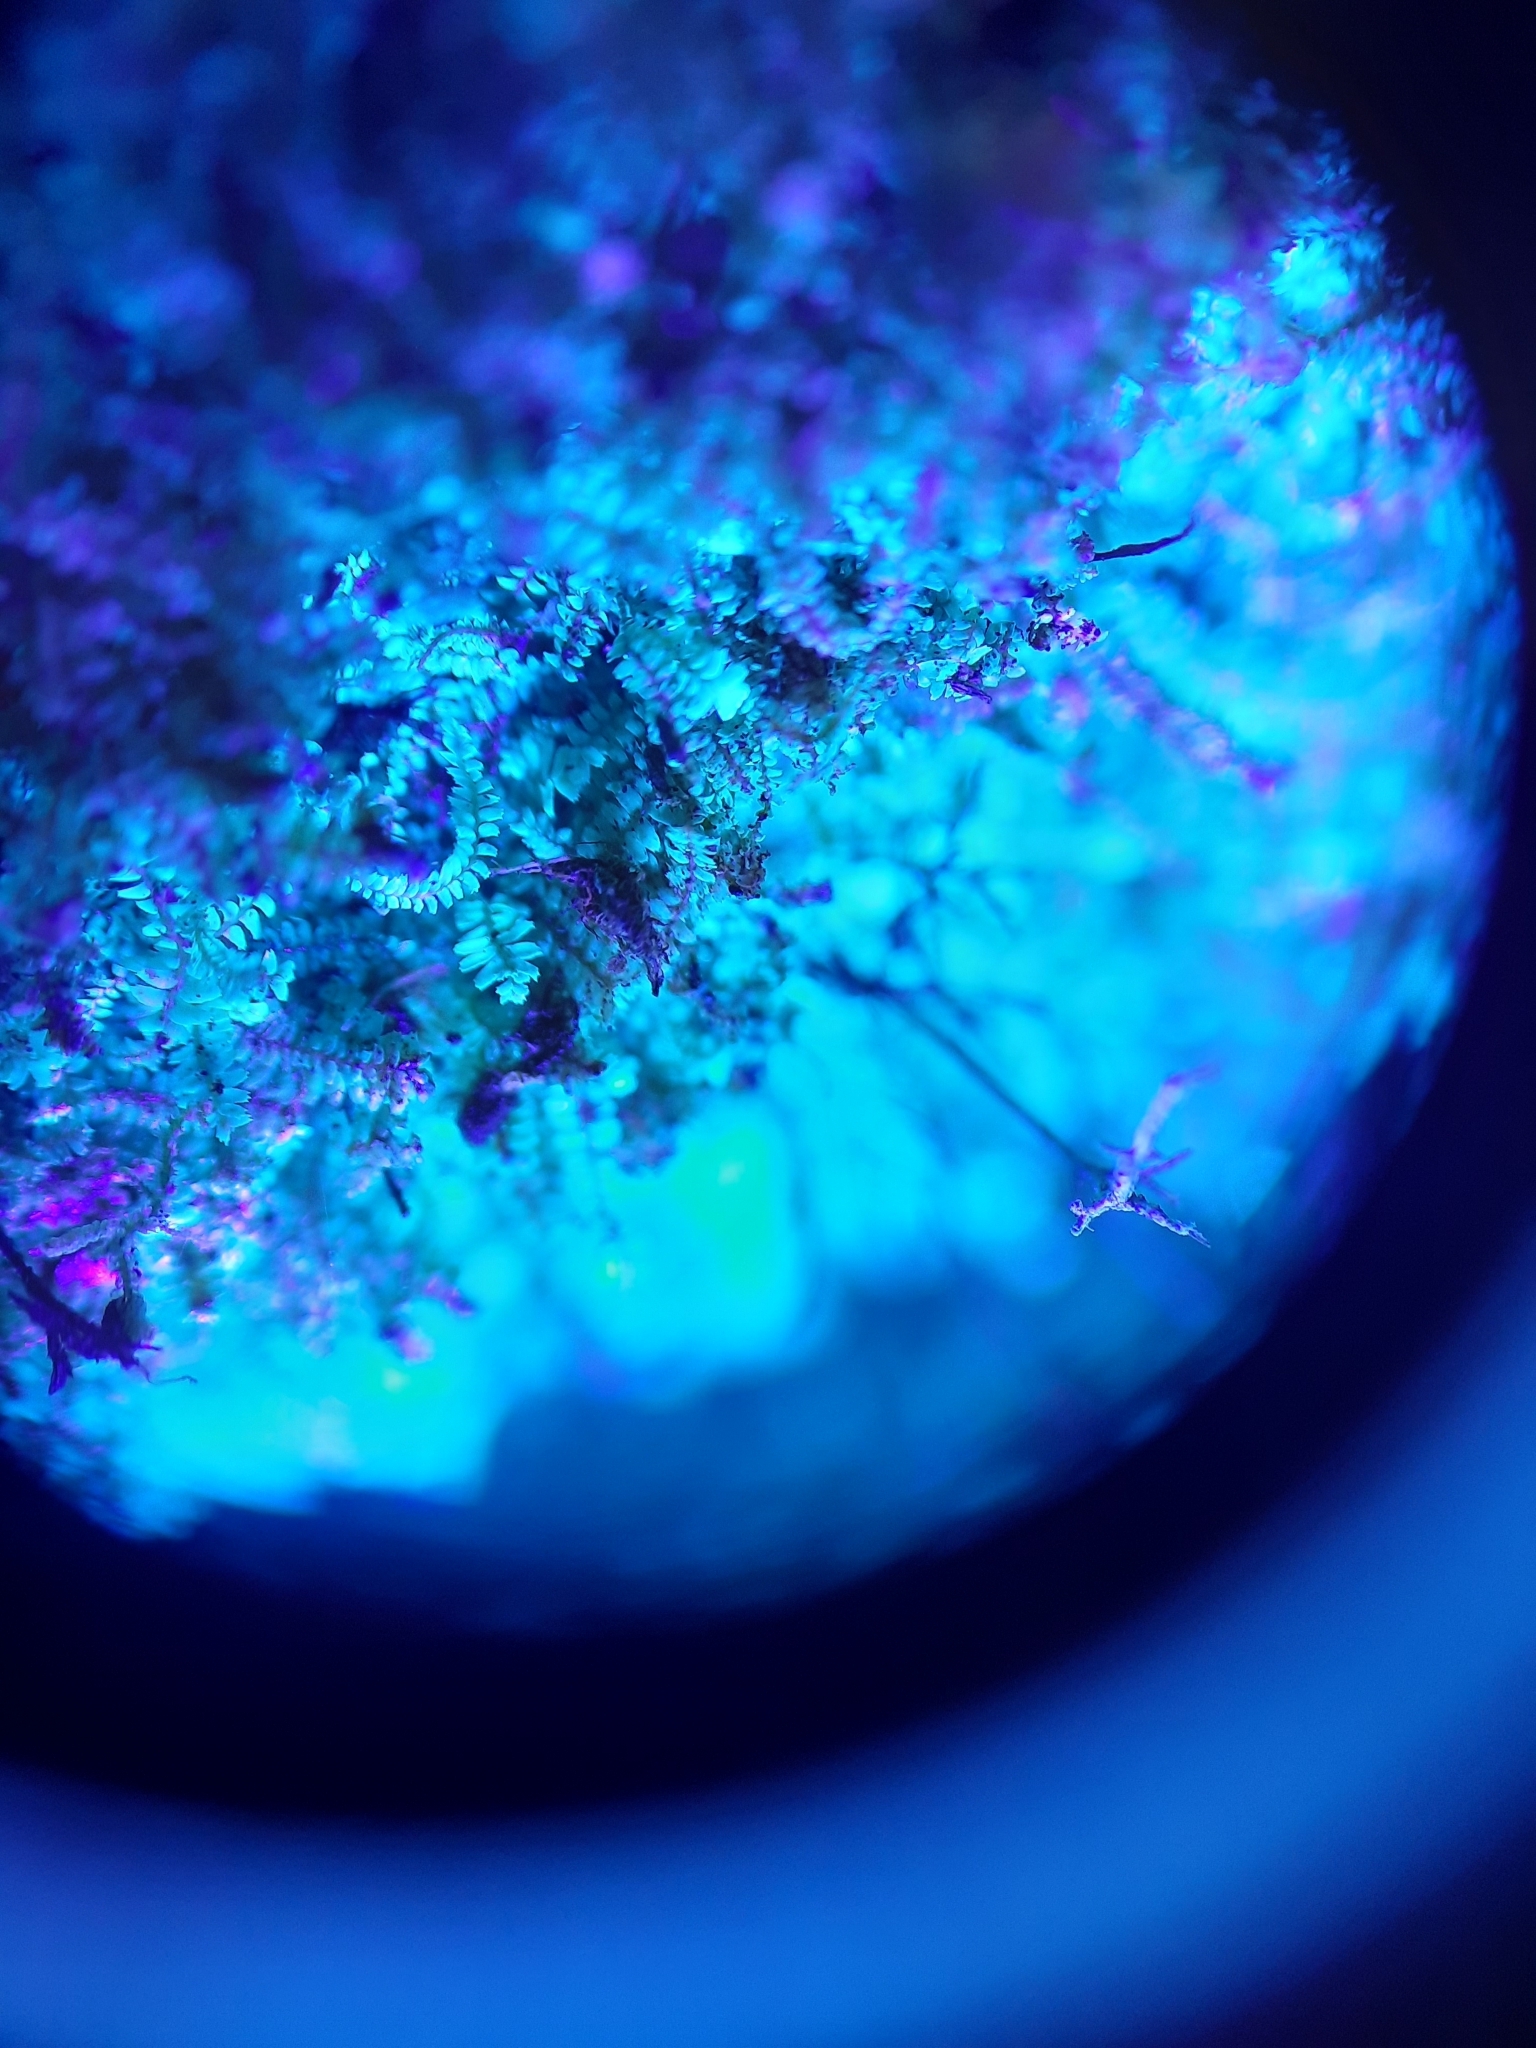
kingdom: Plantae
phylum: Marchantiophyta
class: Jungermanniopsida
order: Jungermanniales
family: Lepidoziaceae
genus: Bazzania
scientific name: Bazzania tayloriana
